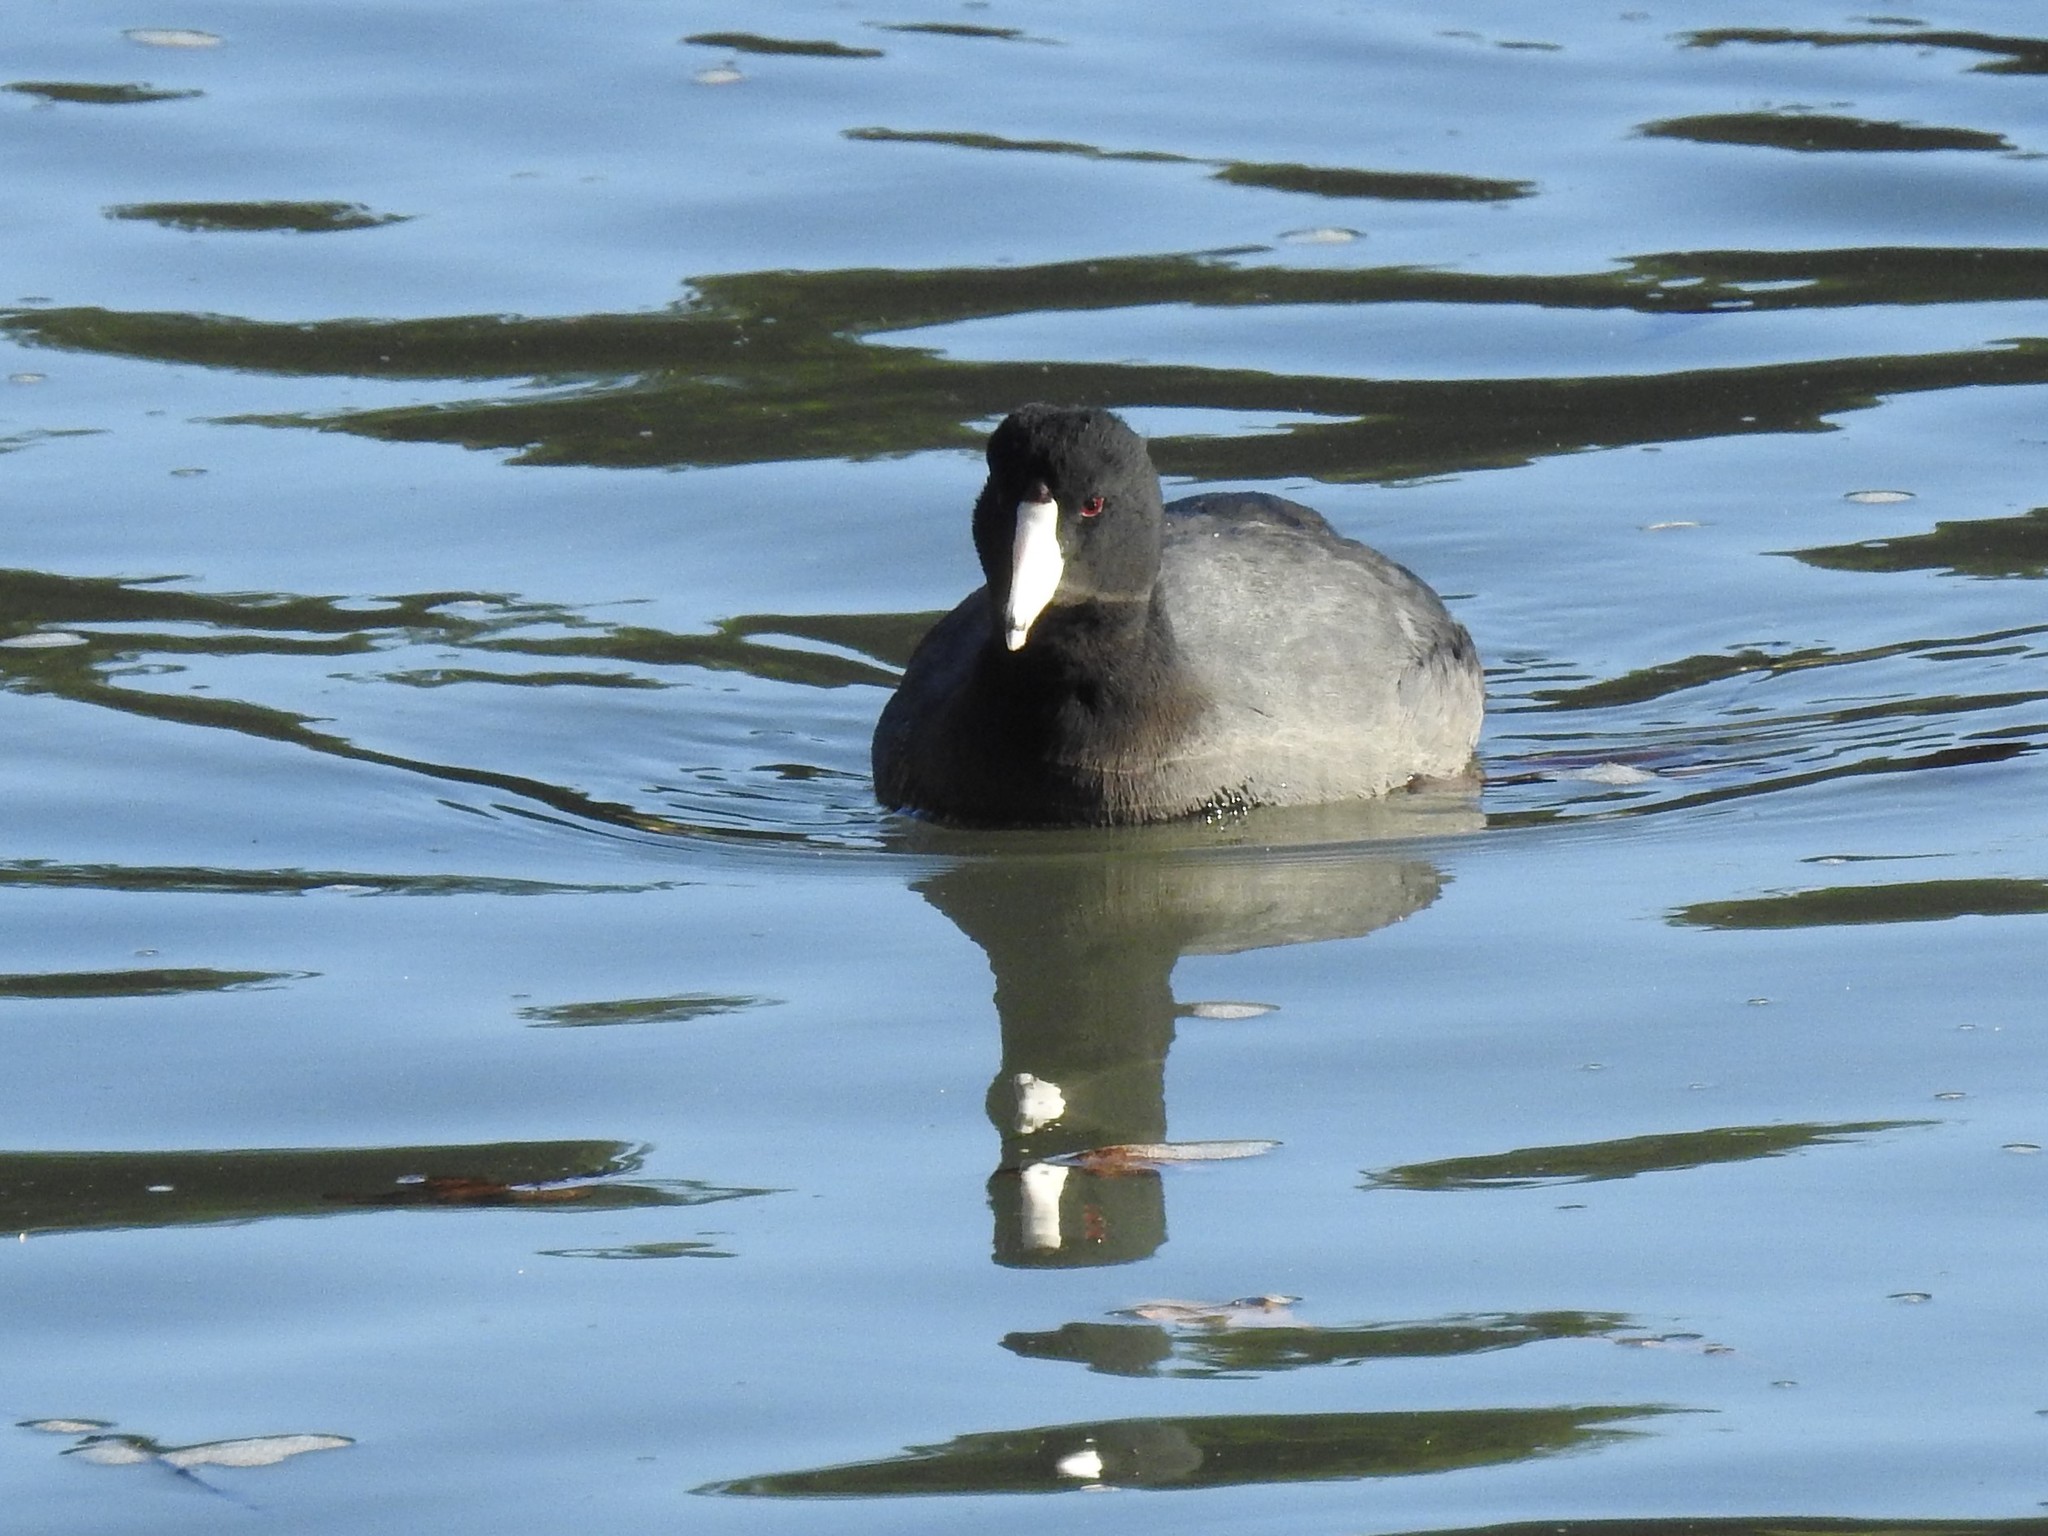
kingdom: Animalia
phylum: Chordata
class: Aves
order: Gruiformes
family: Rallidae
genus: Fulica
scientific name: Fulica americana
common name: American coot
